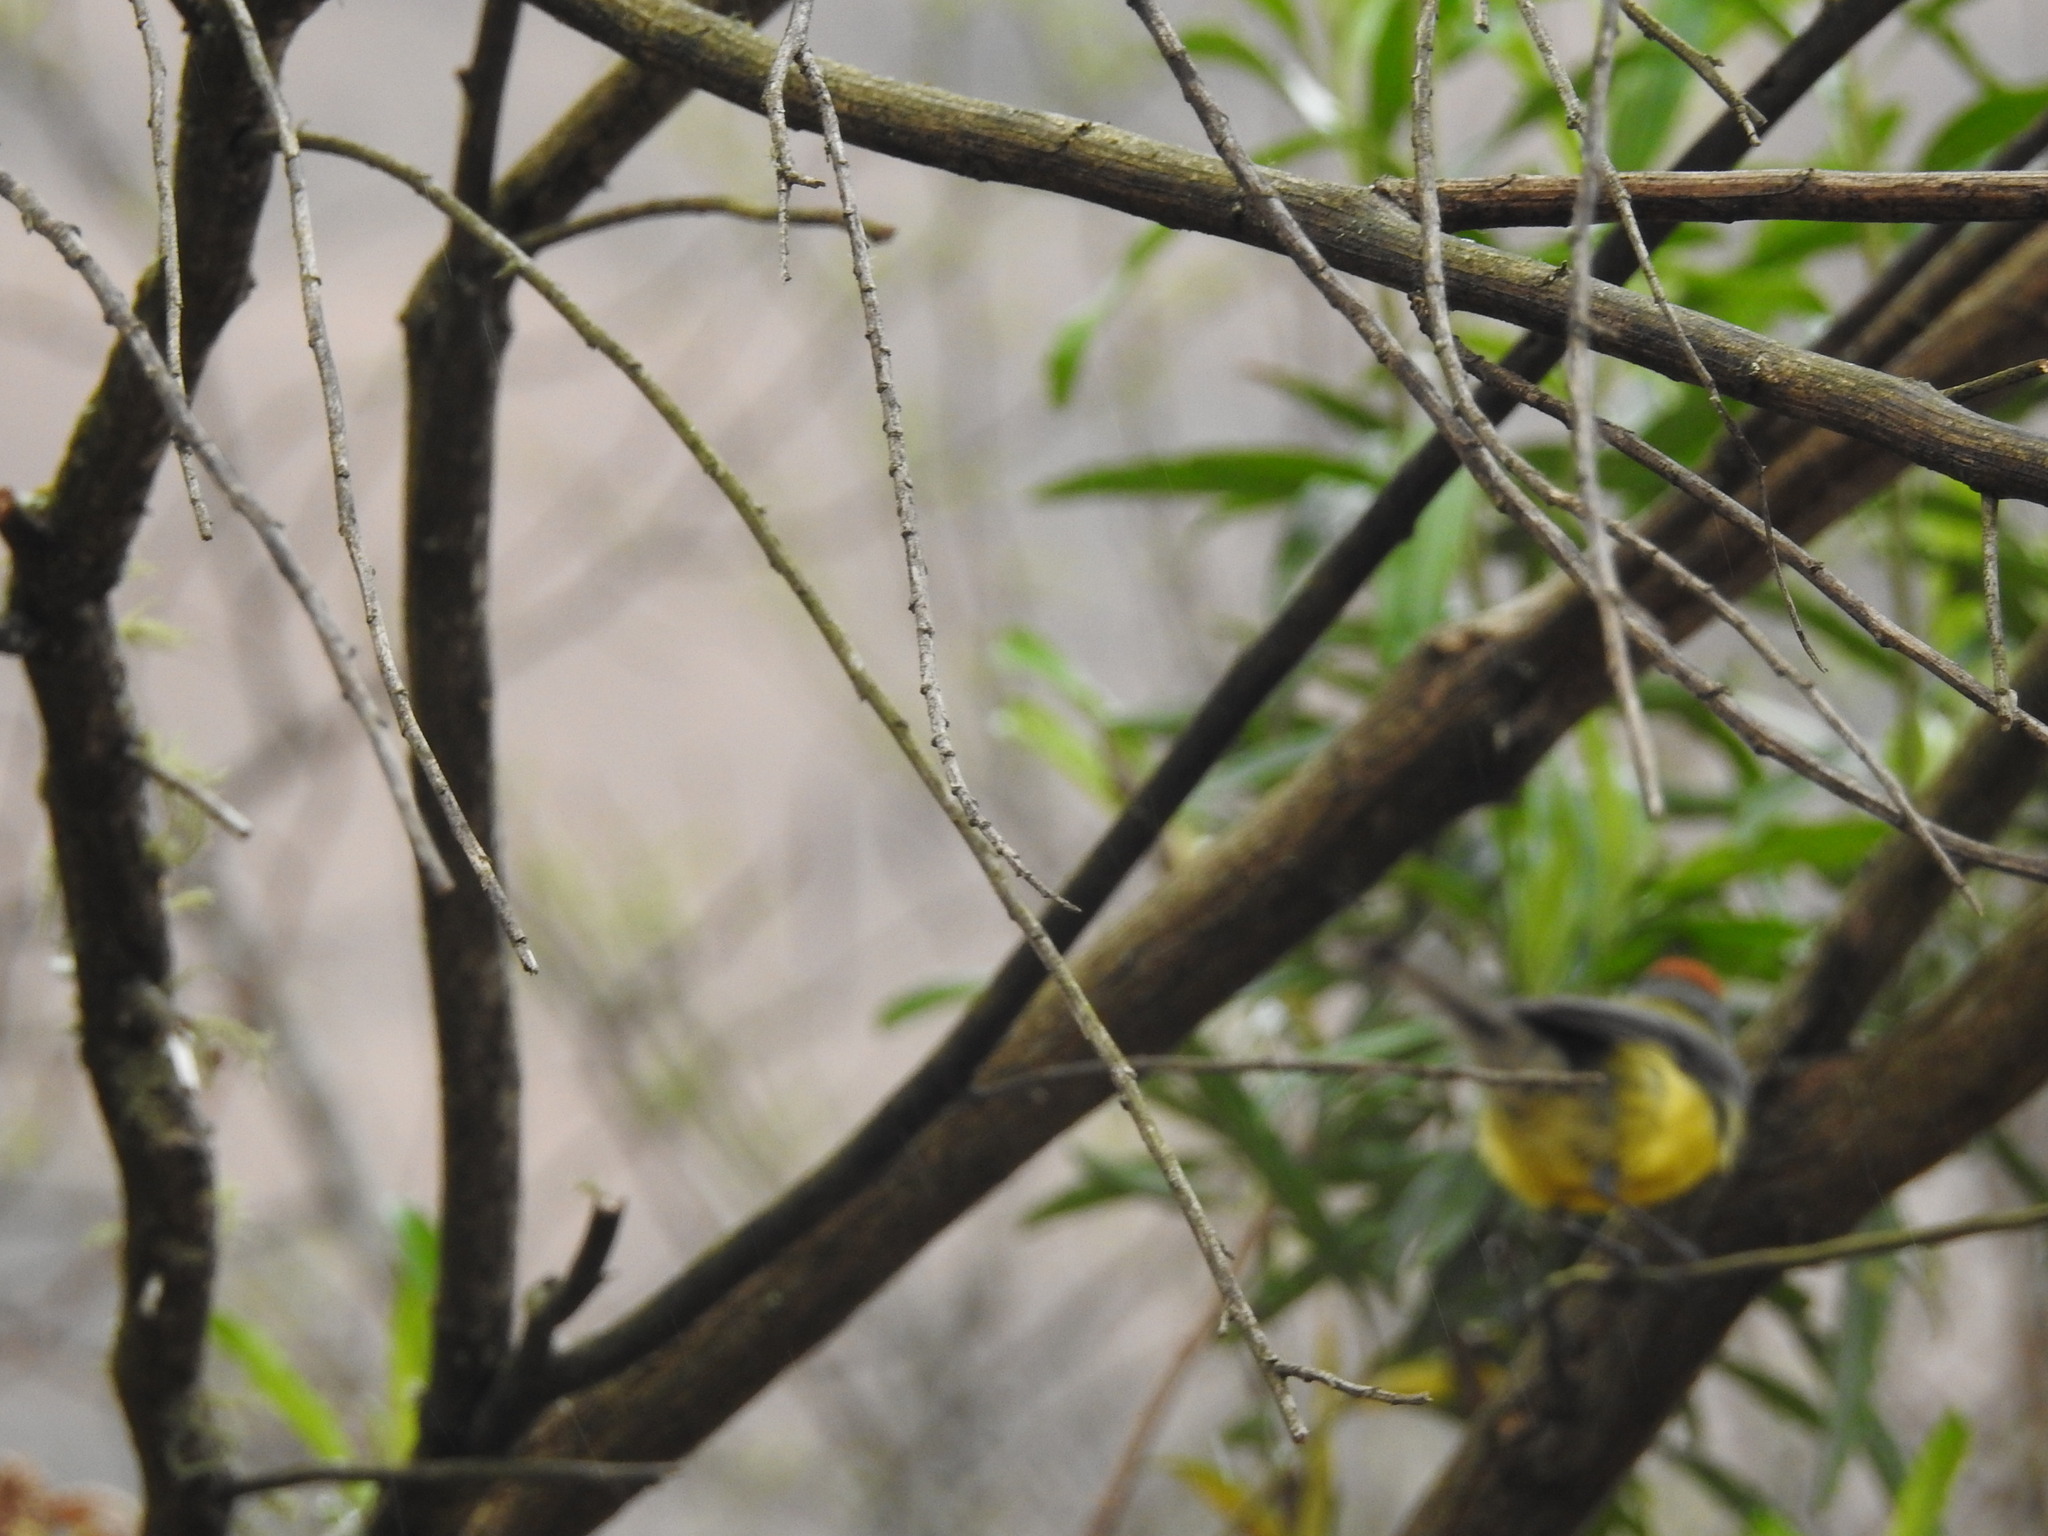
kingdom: Animalia
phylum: Chordata
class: Aves
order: Passeriformes
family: Parulidae
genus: Myioborus
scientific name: Myioborus brunniceps
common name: Brown-capped whitestart
